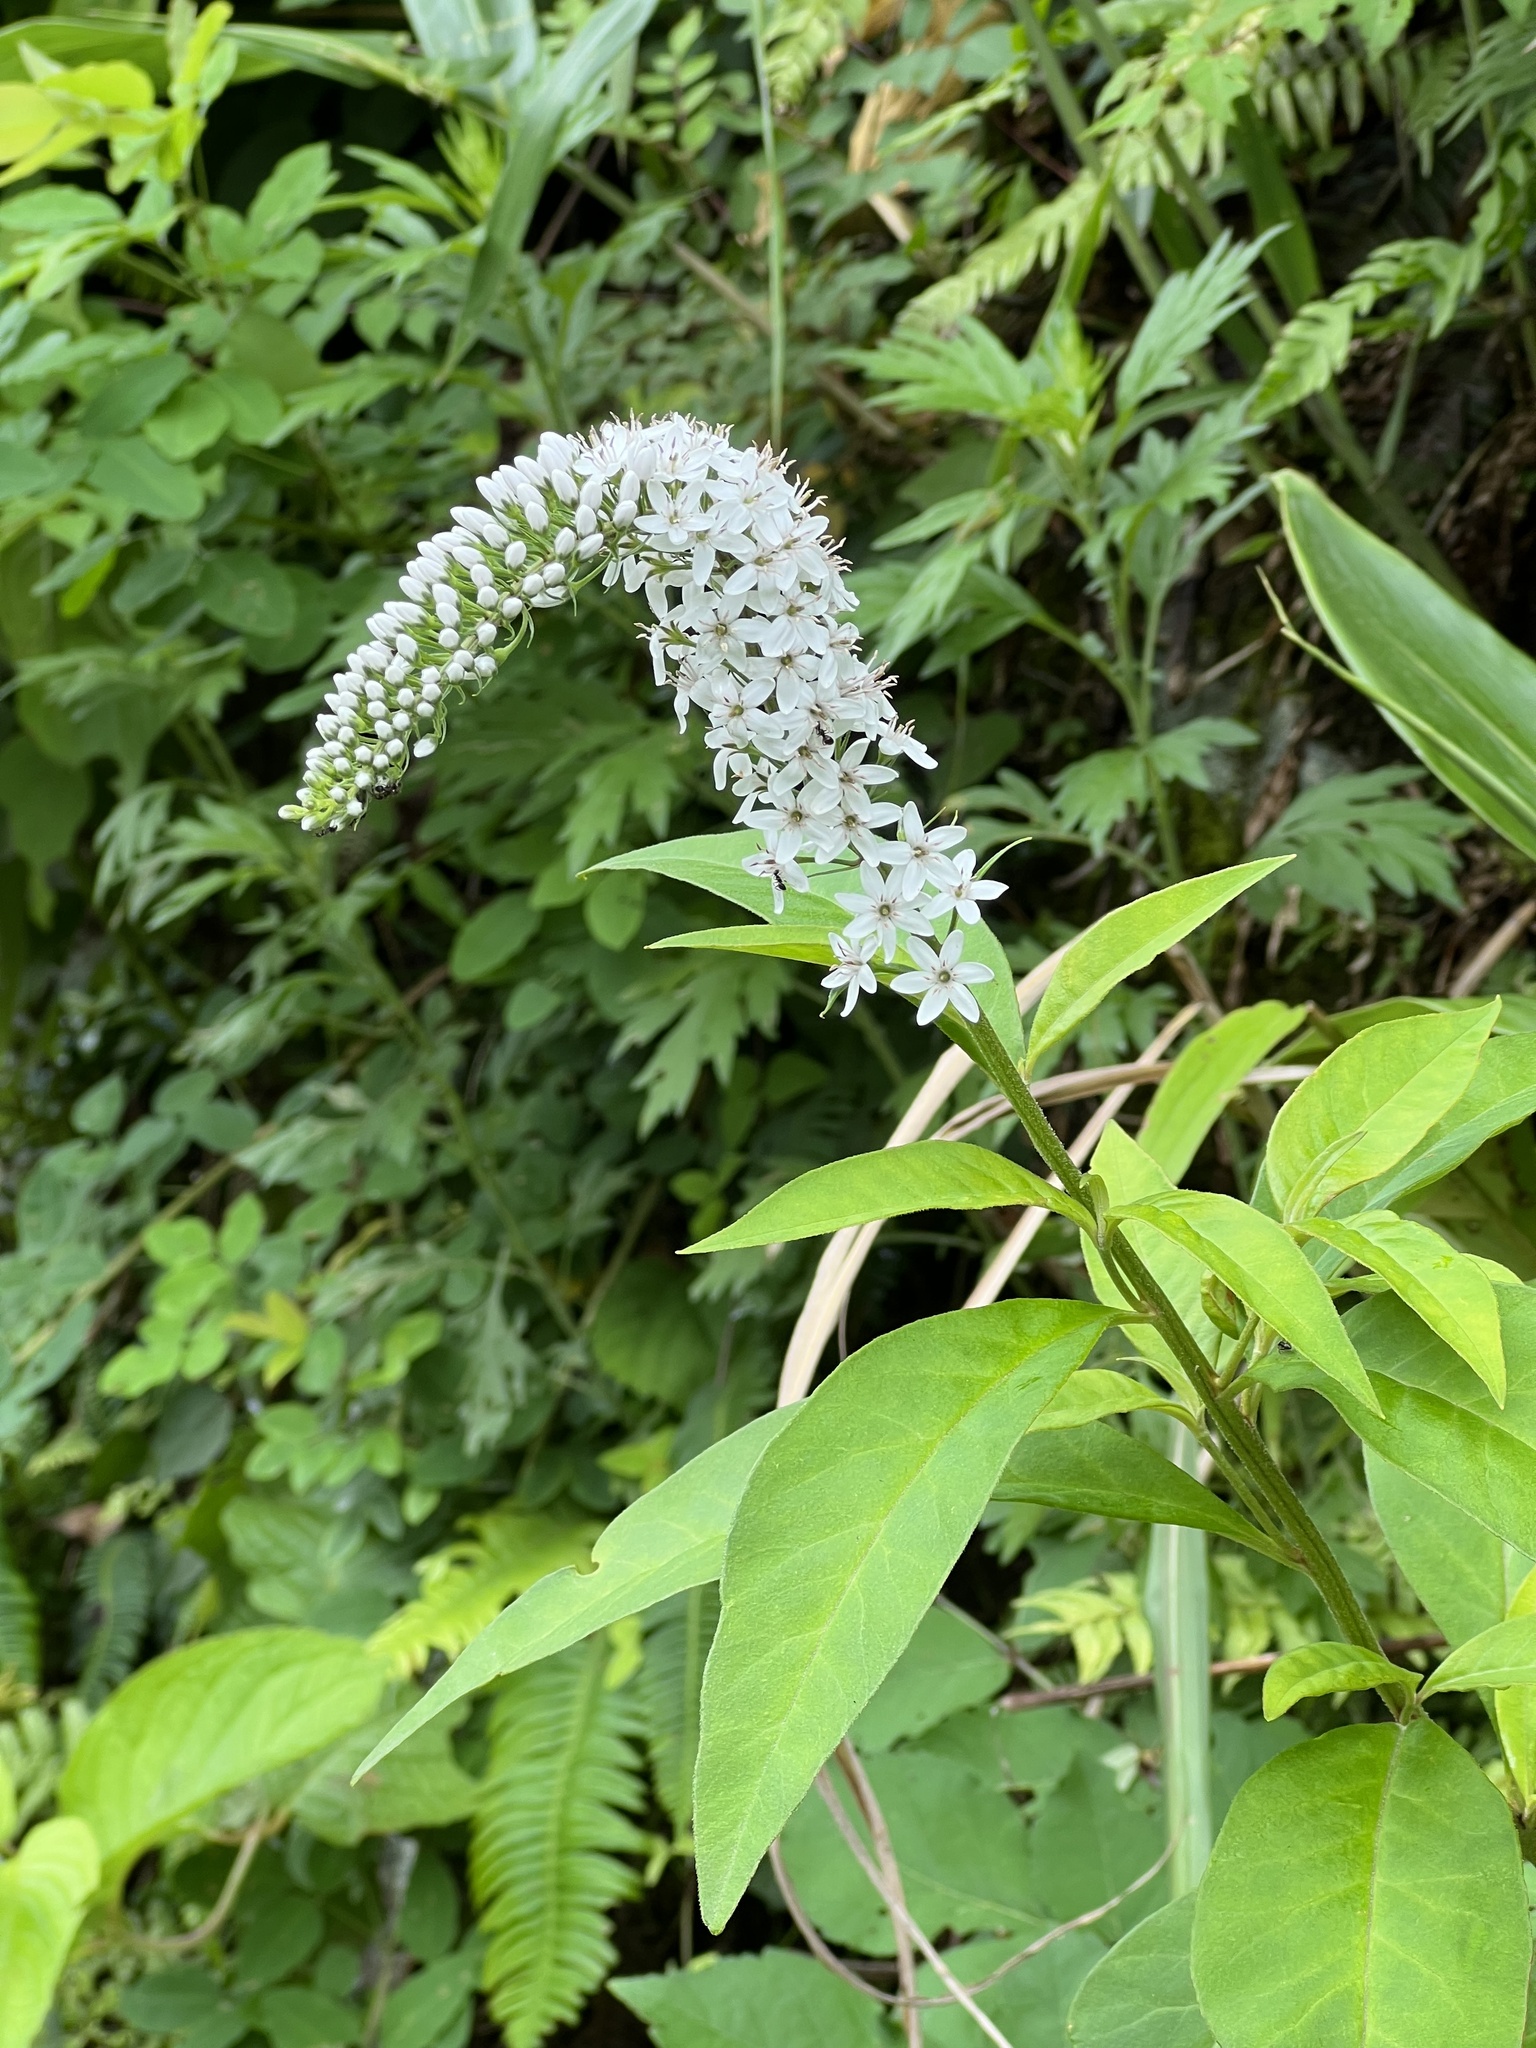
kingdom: Plantae
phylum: Tracheophyta
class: Magnoliopsida
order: Ericales
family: Primulaceae
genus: Lysimachia
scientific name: Lysimachia clethroides
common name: Gooseneck loosestrife
